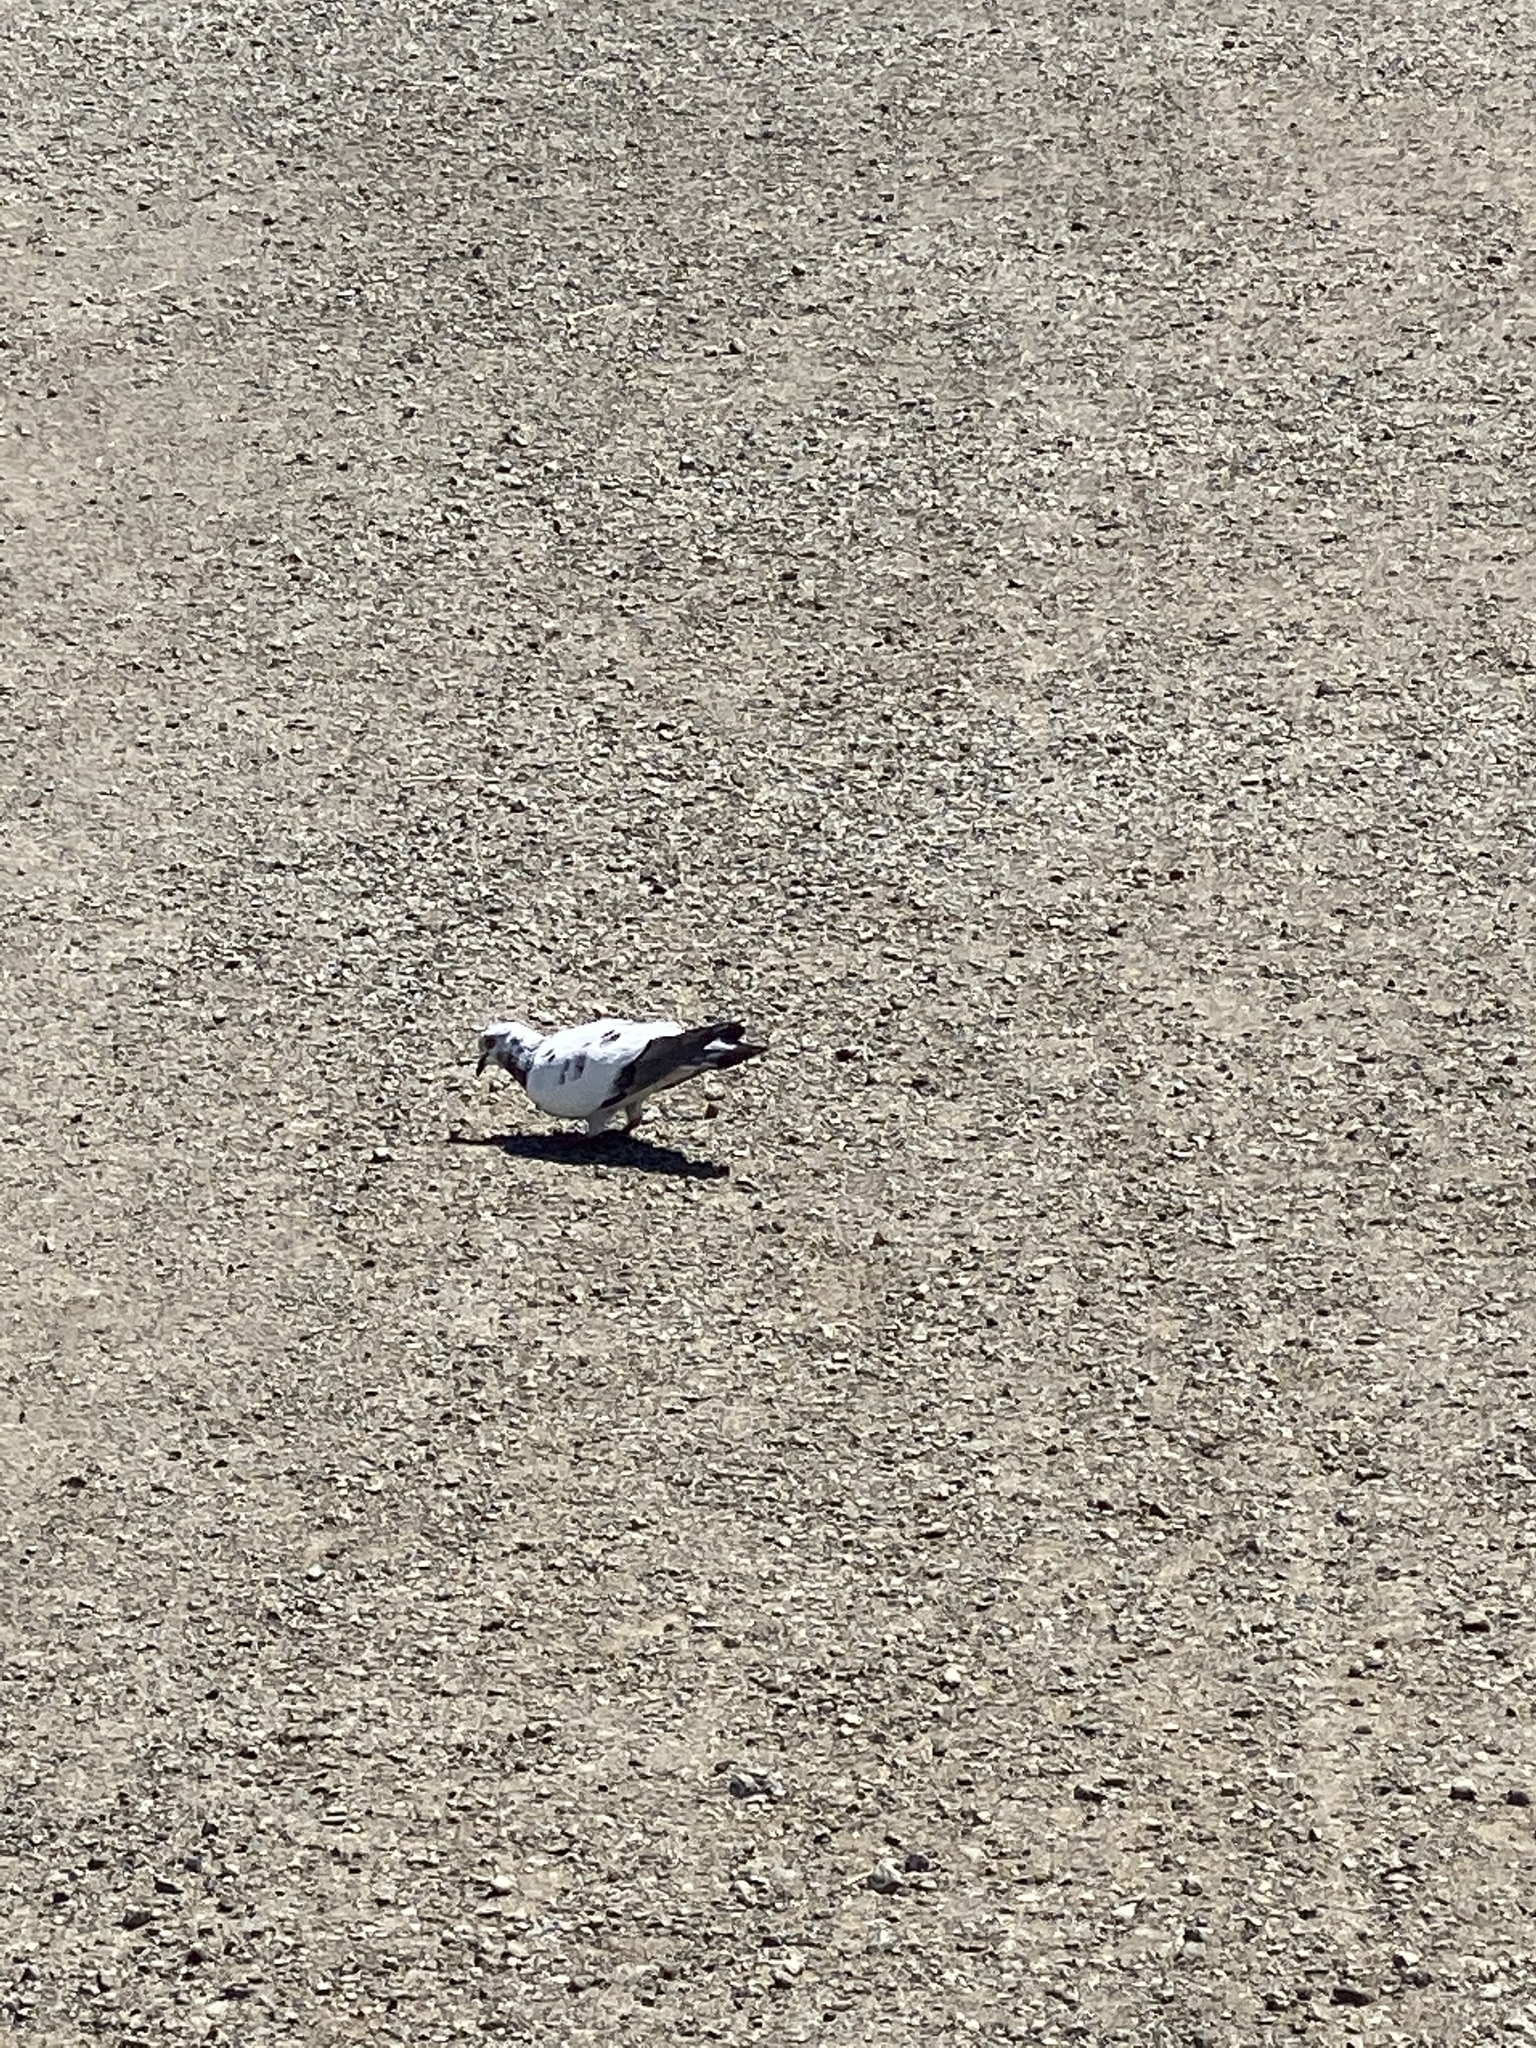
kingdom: Animalia
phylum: Chordata
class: Aves
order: Columbiformes
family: Columbidae
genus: Columba
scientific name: Columba livia
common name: Rock pigeon
